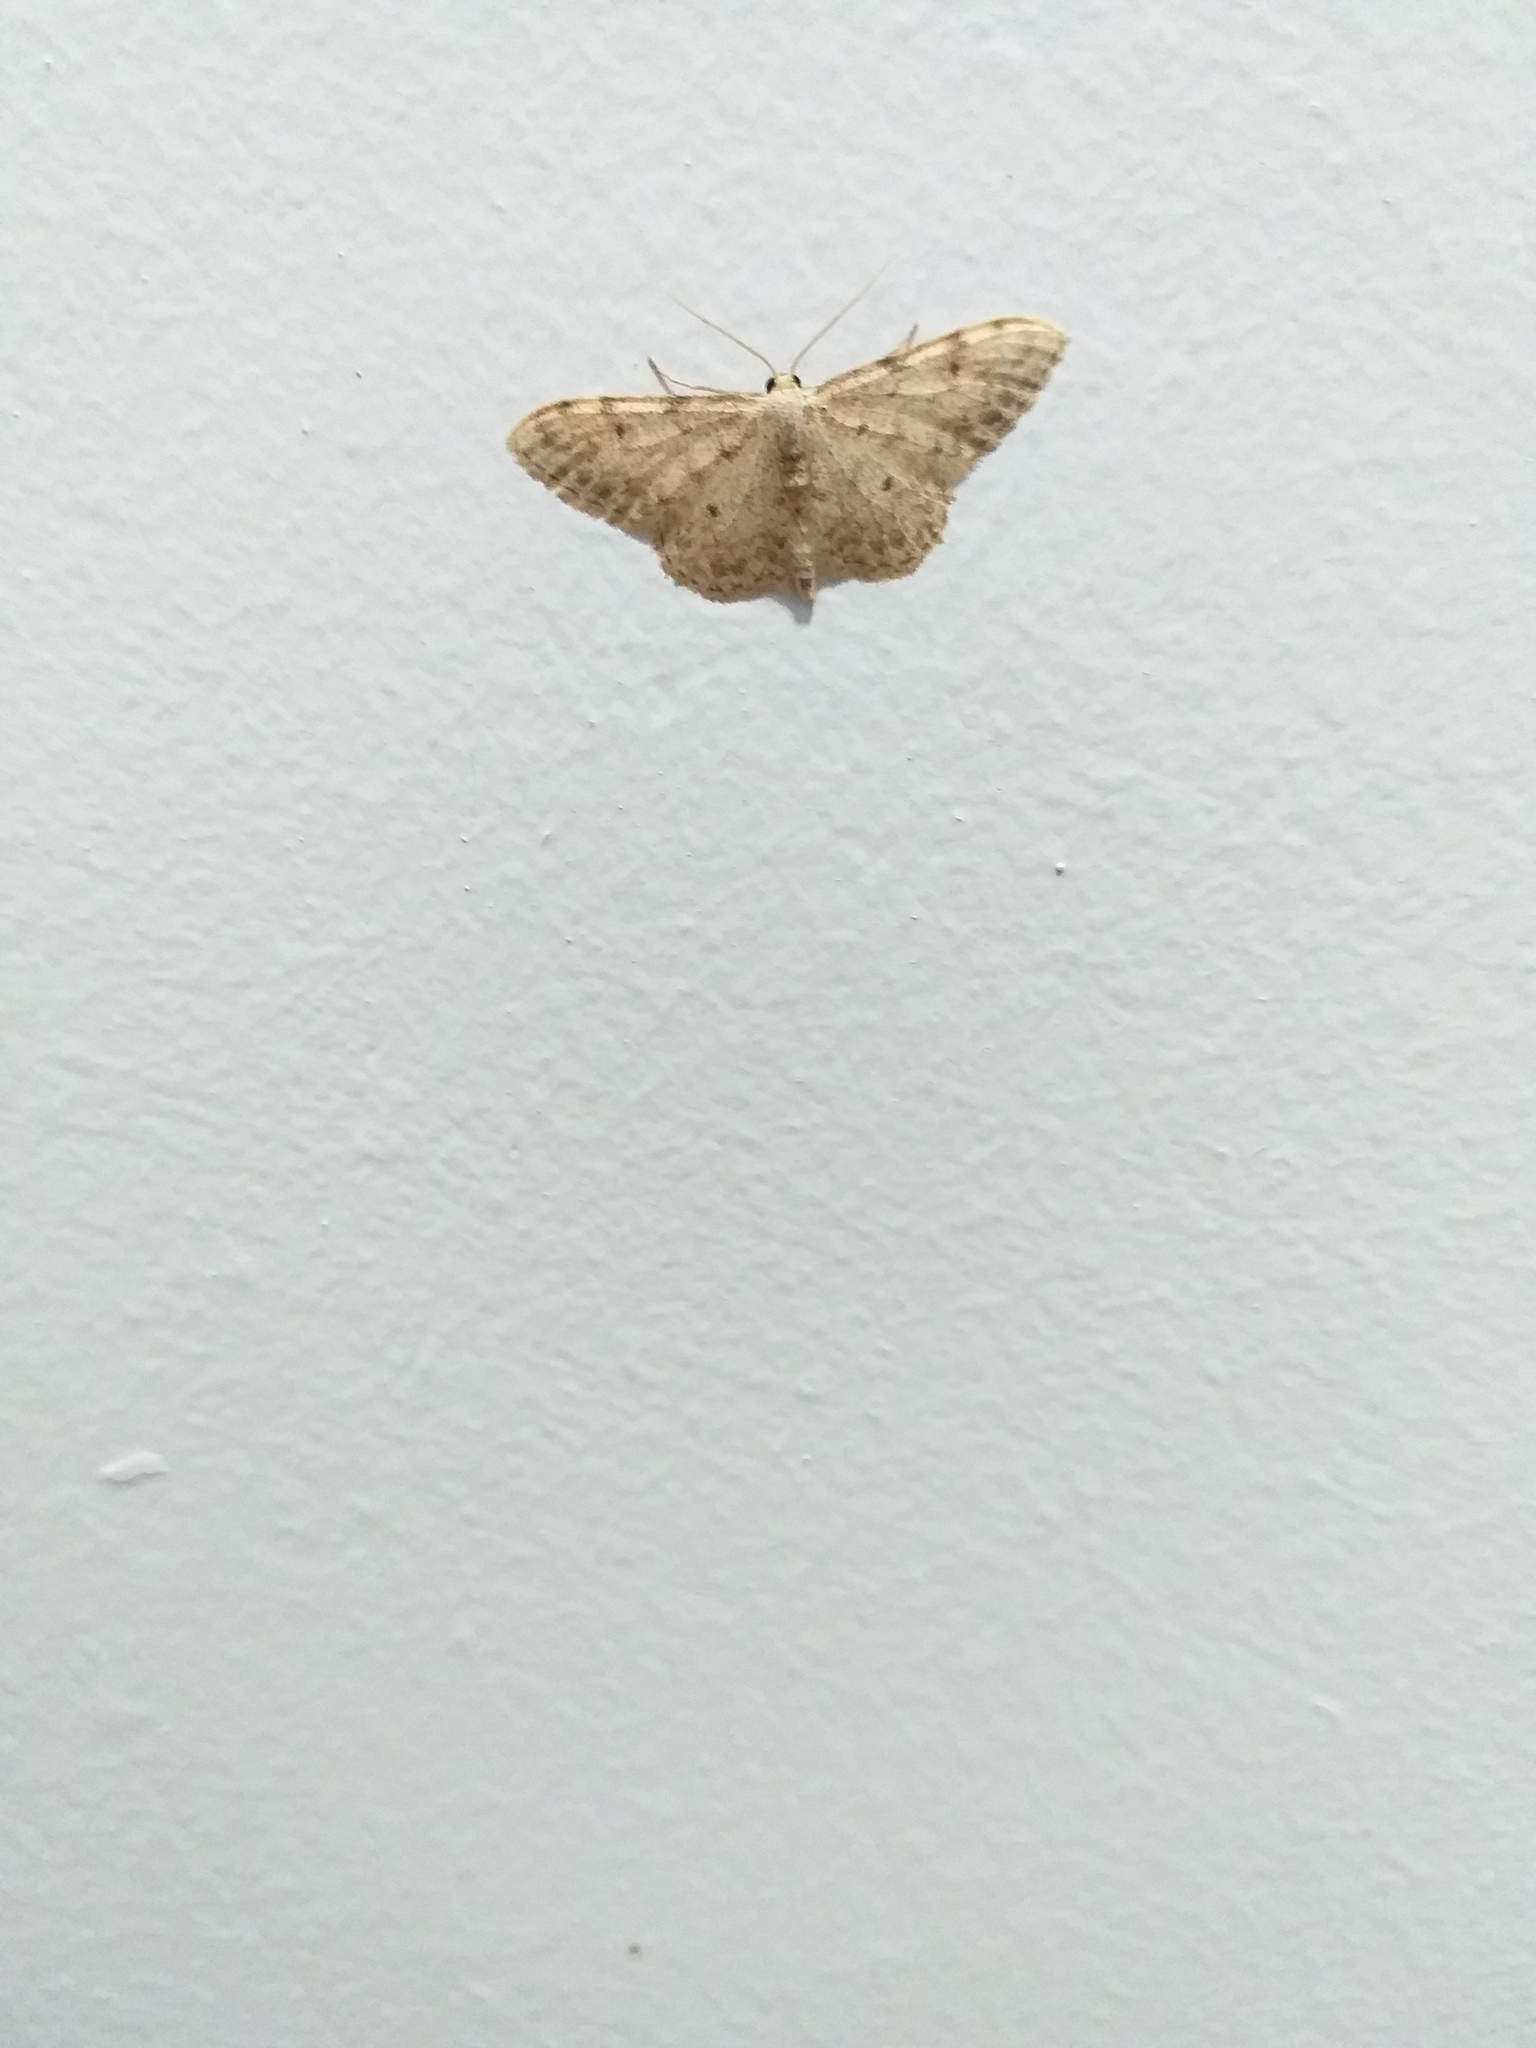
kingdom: Animalia
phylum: Arthropoda
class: Insecta
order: Lepidoptera
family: Geometridae
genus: Idaea
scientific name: Idaea cervantaria
